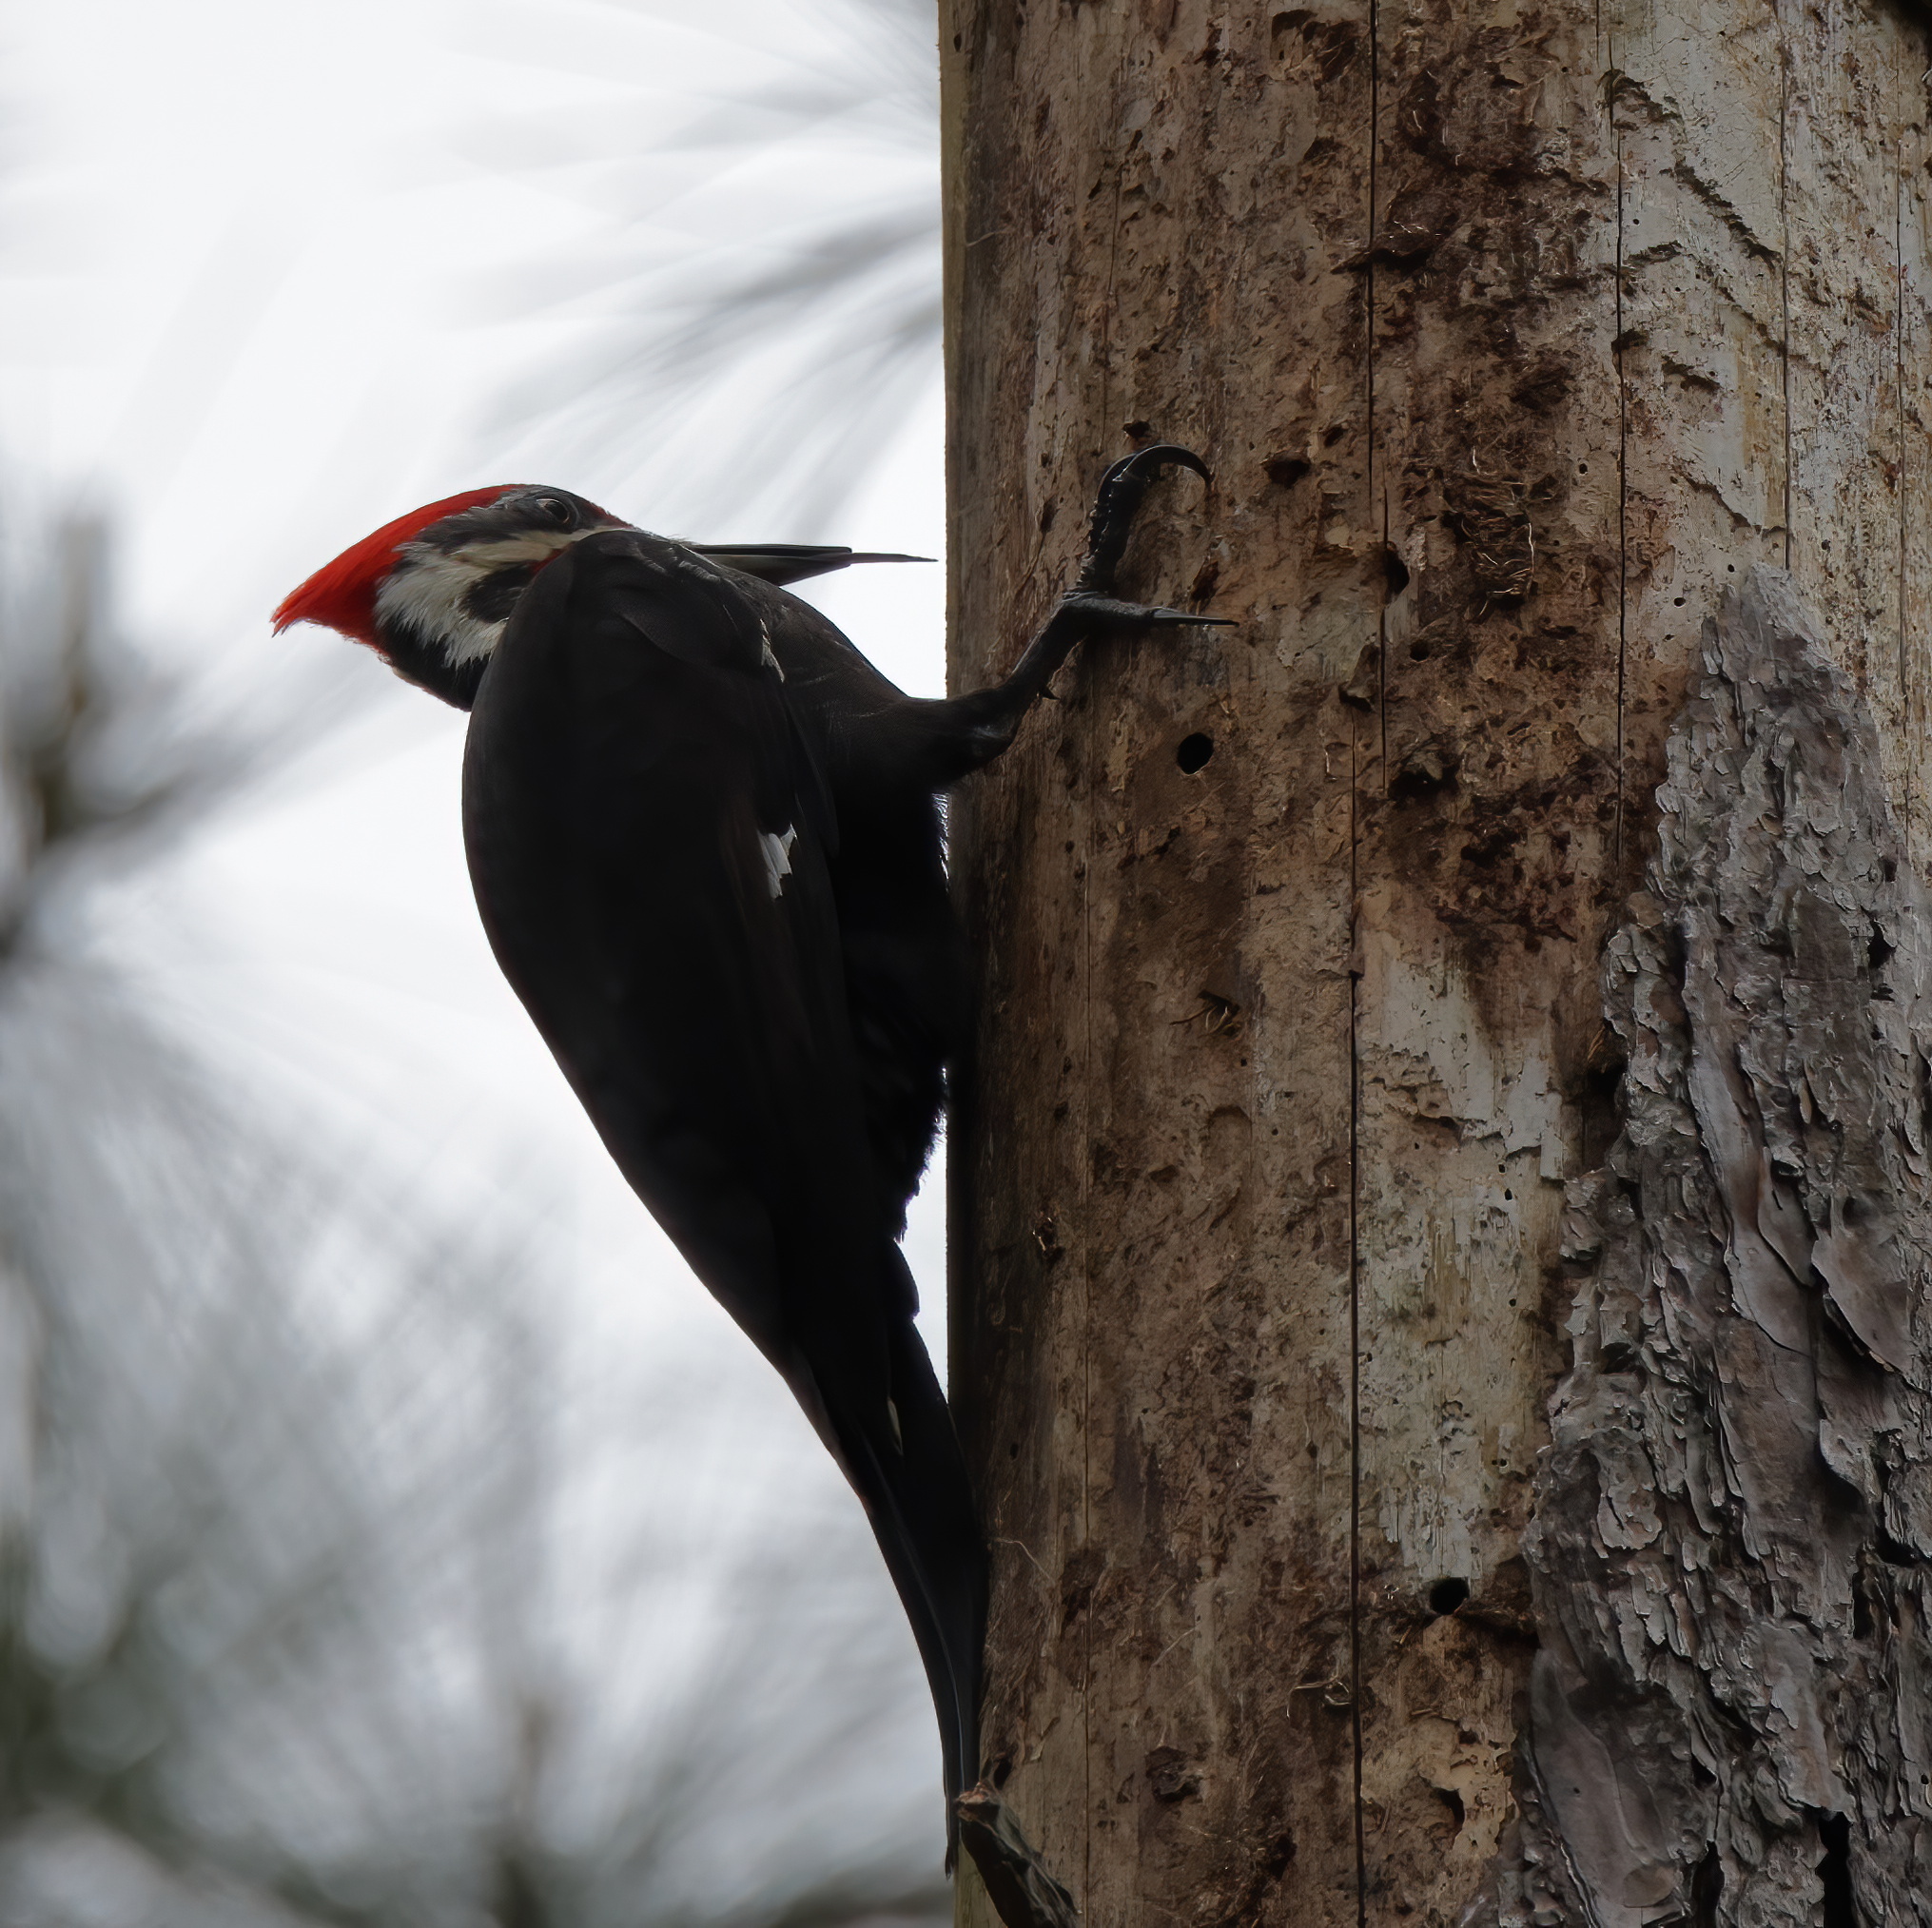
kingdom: Animalia
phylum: Chordata
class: Aves
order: Piciformes
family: Picidae
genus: Dryocopus
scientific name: Dryocopus pileatus
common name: Pileated woodpecker
